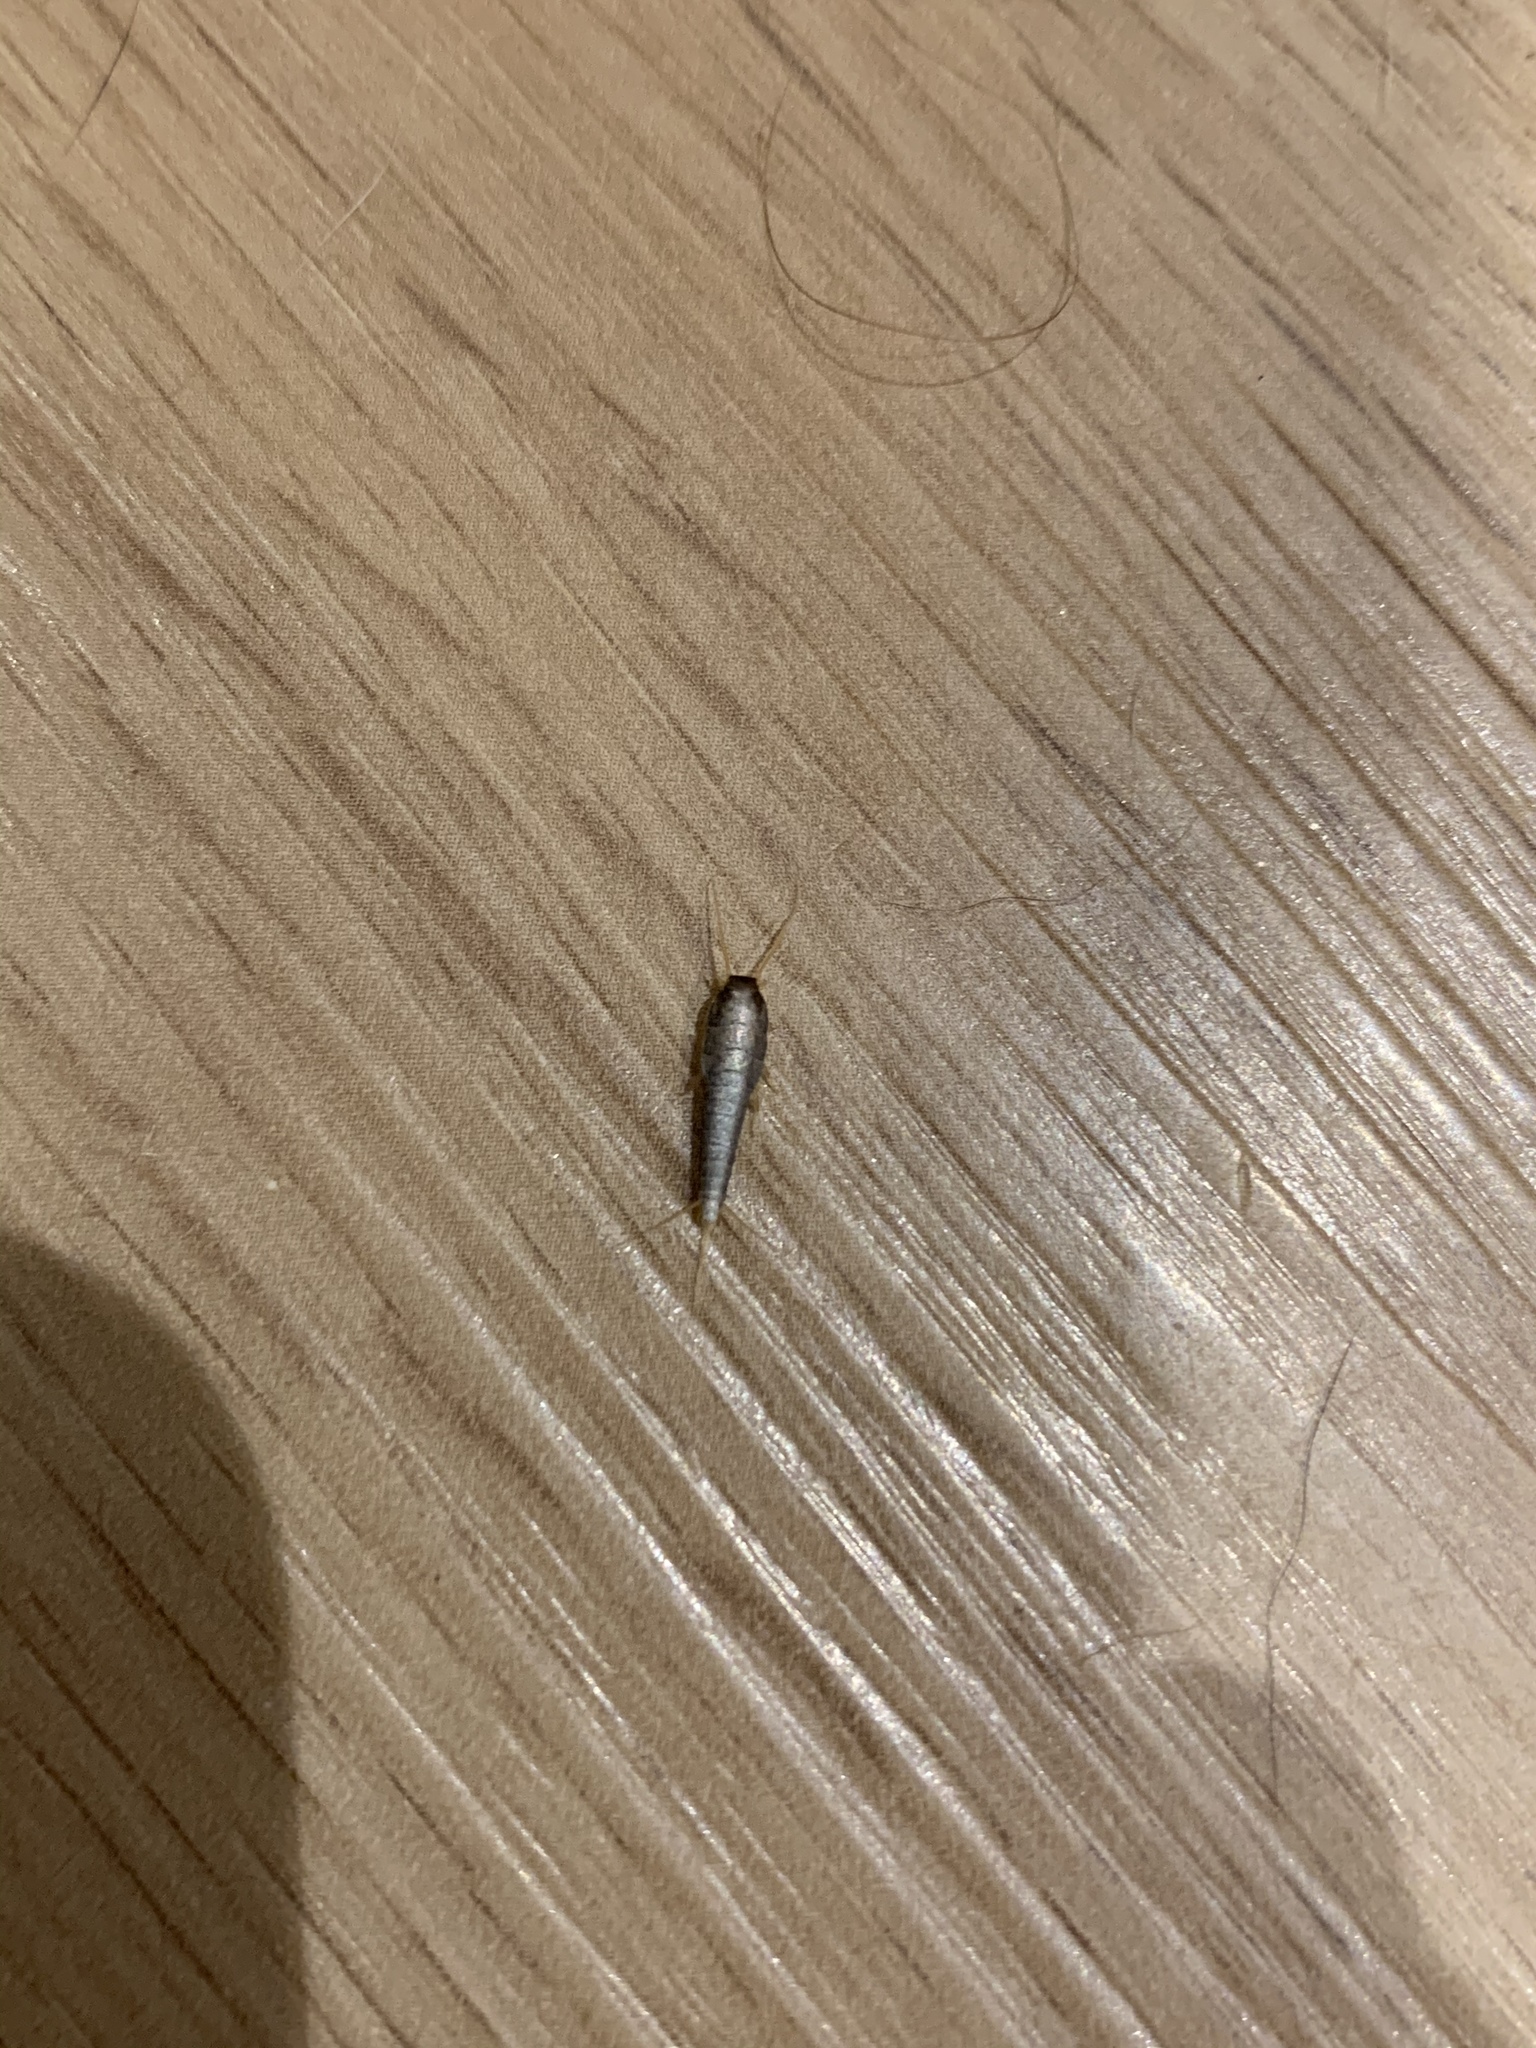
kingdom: Animalia
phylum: Arthropoda
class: Insecta
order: Zygentoma
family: Lepismatidae
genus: Lepisma
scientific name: Lepisma saccharinum
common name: Silverfish
